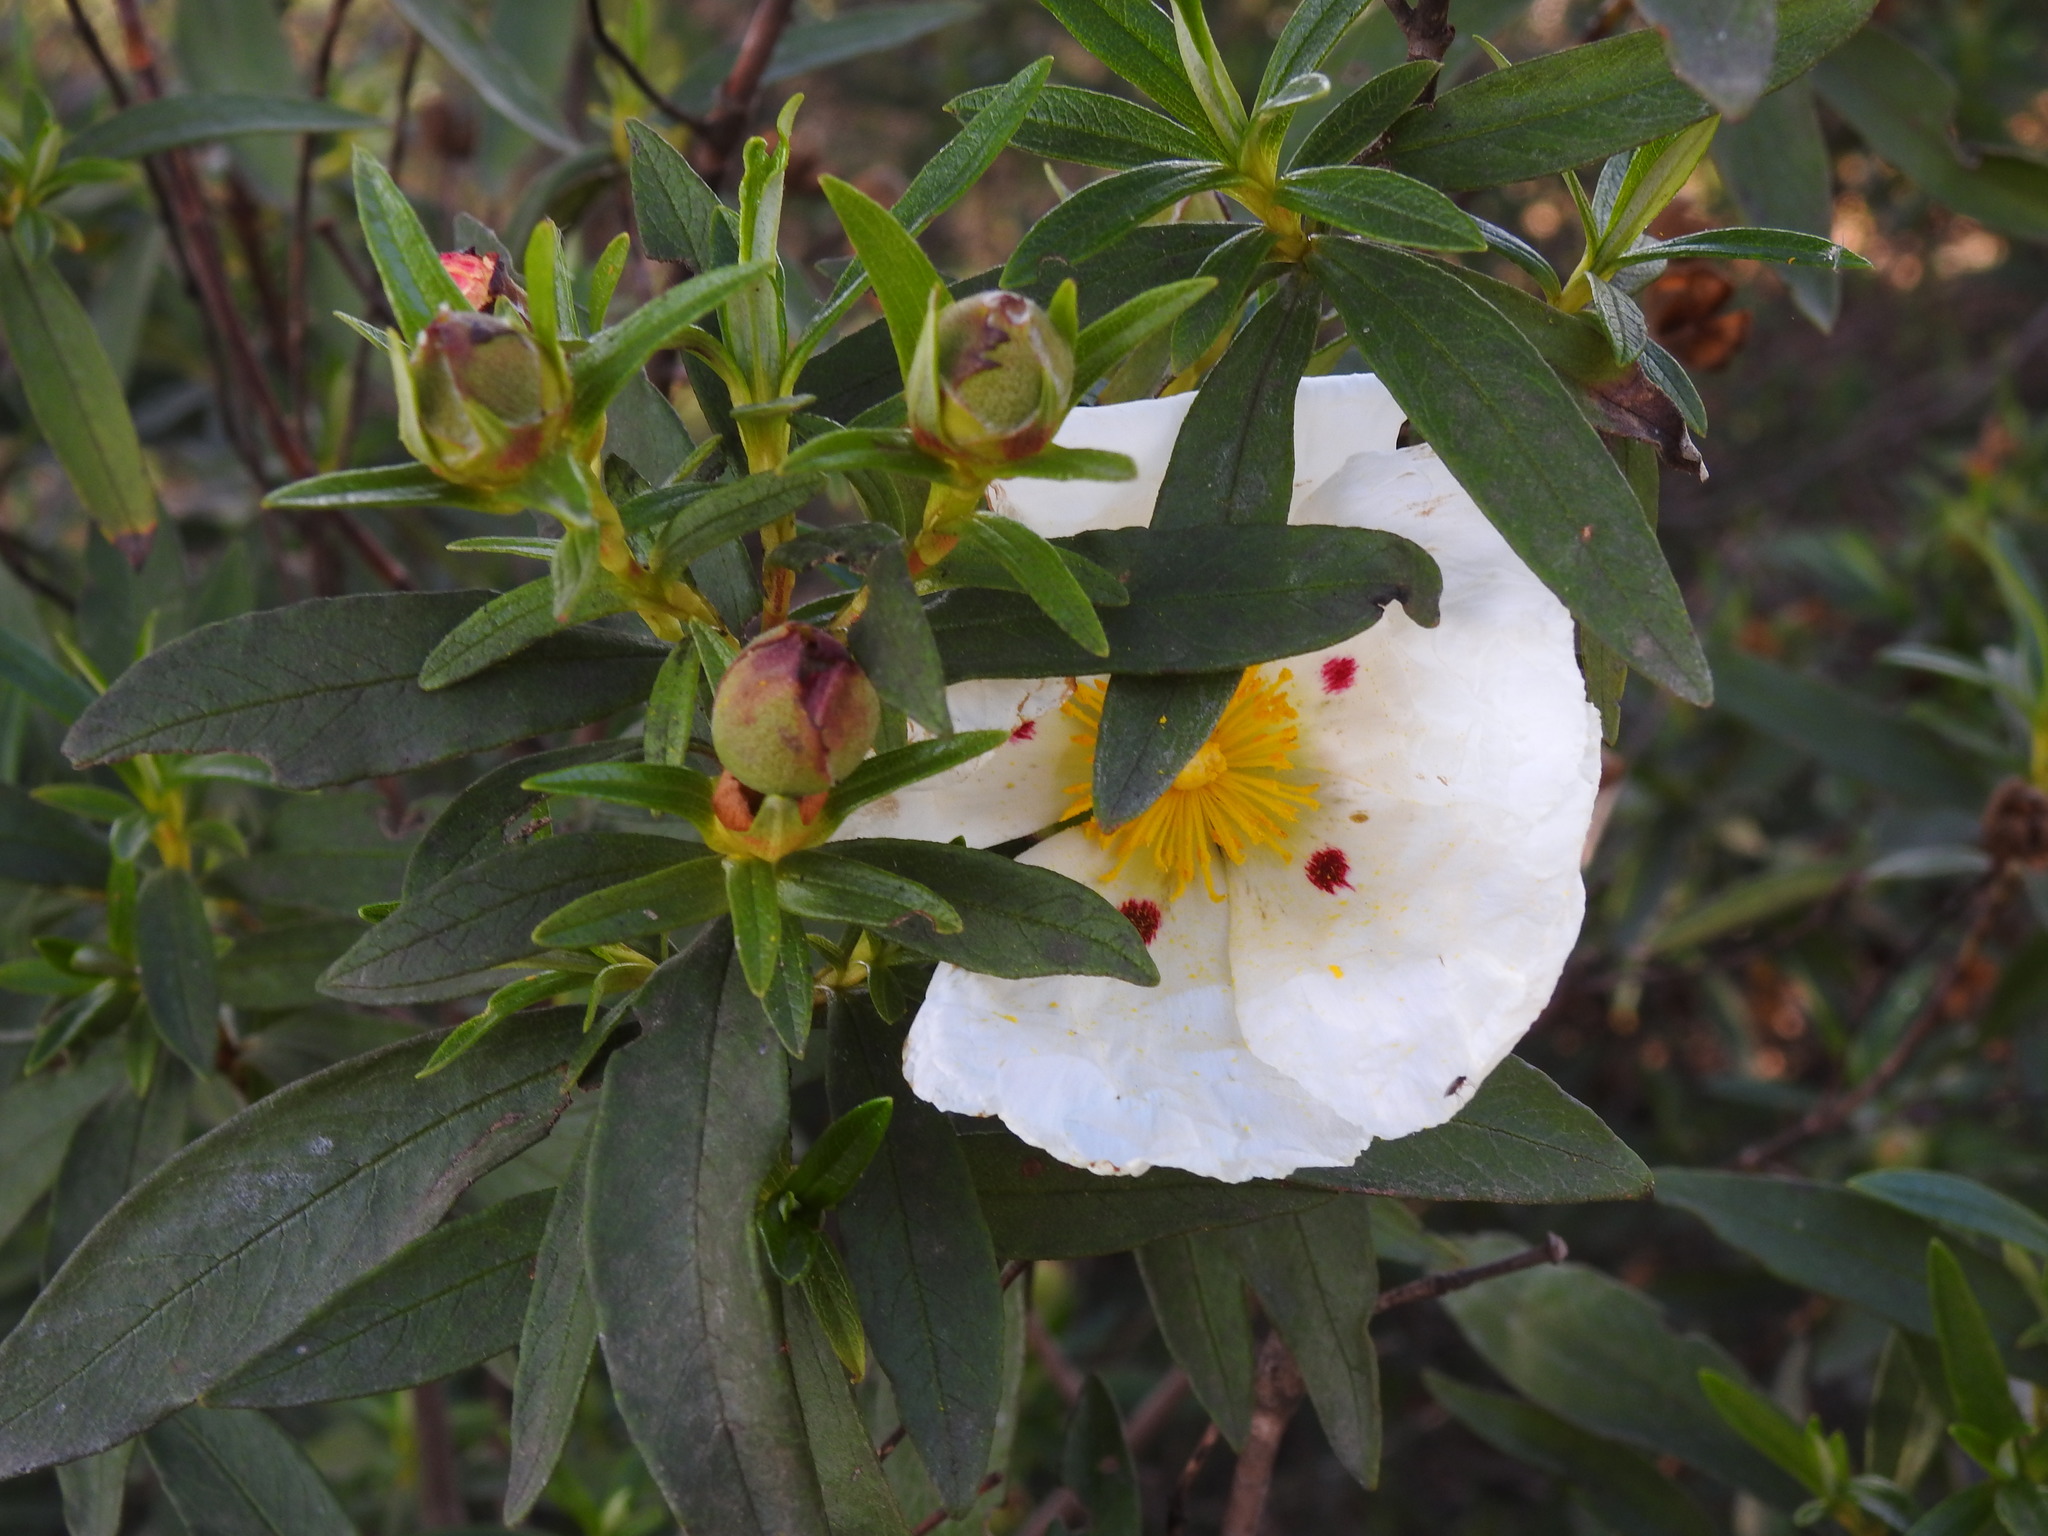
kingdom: Plantae
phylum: Tracheophyta
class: Magnoliopsida
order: Malvales
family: Cistaceae
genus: Cistus
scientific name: Cistus ladanifer
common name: Common gum cistus
